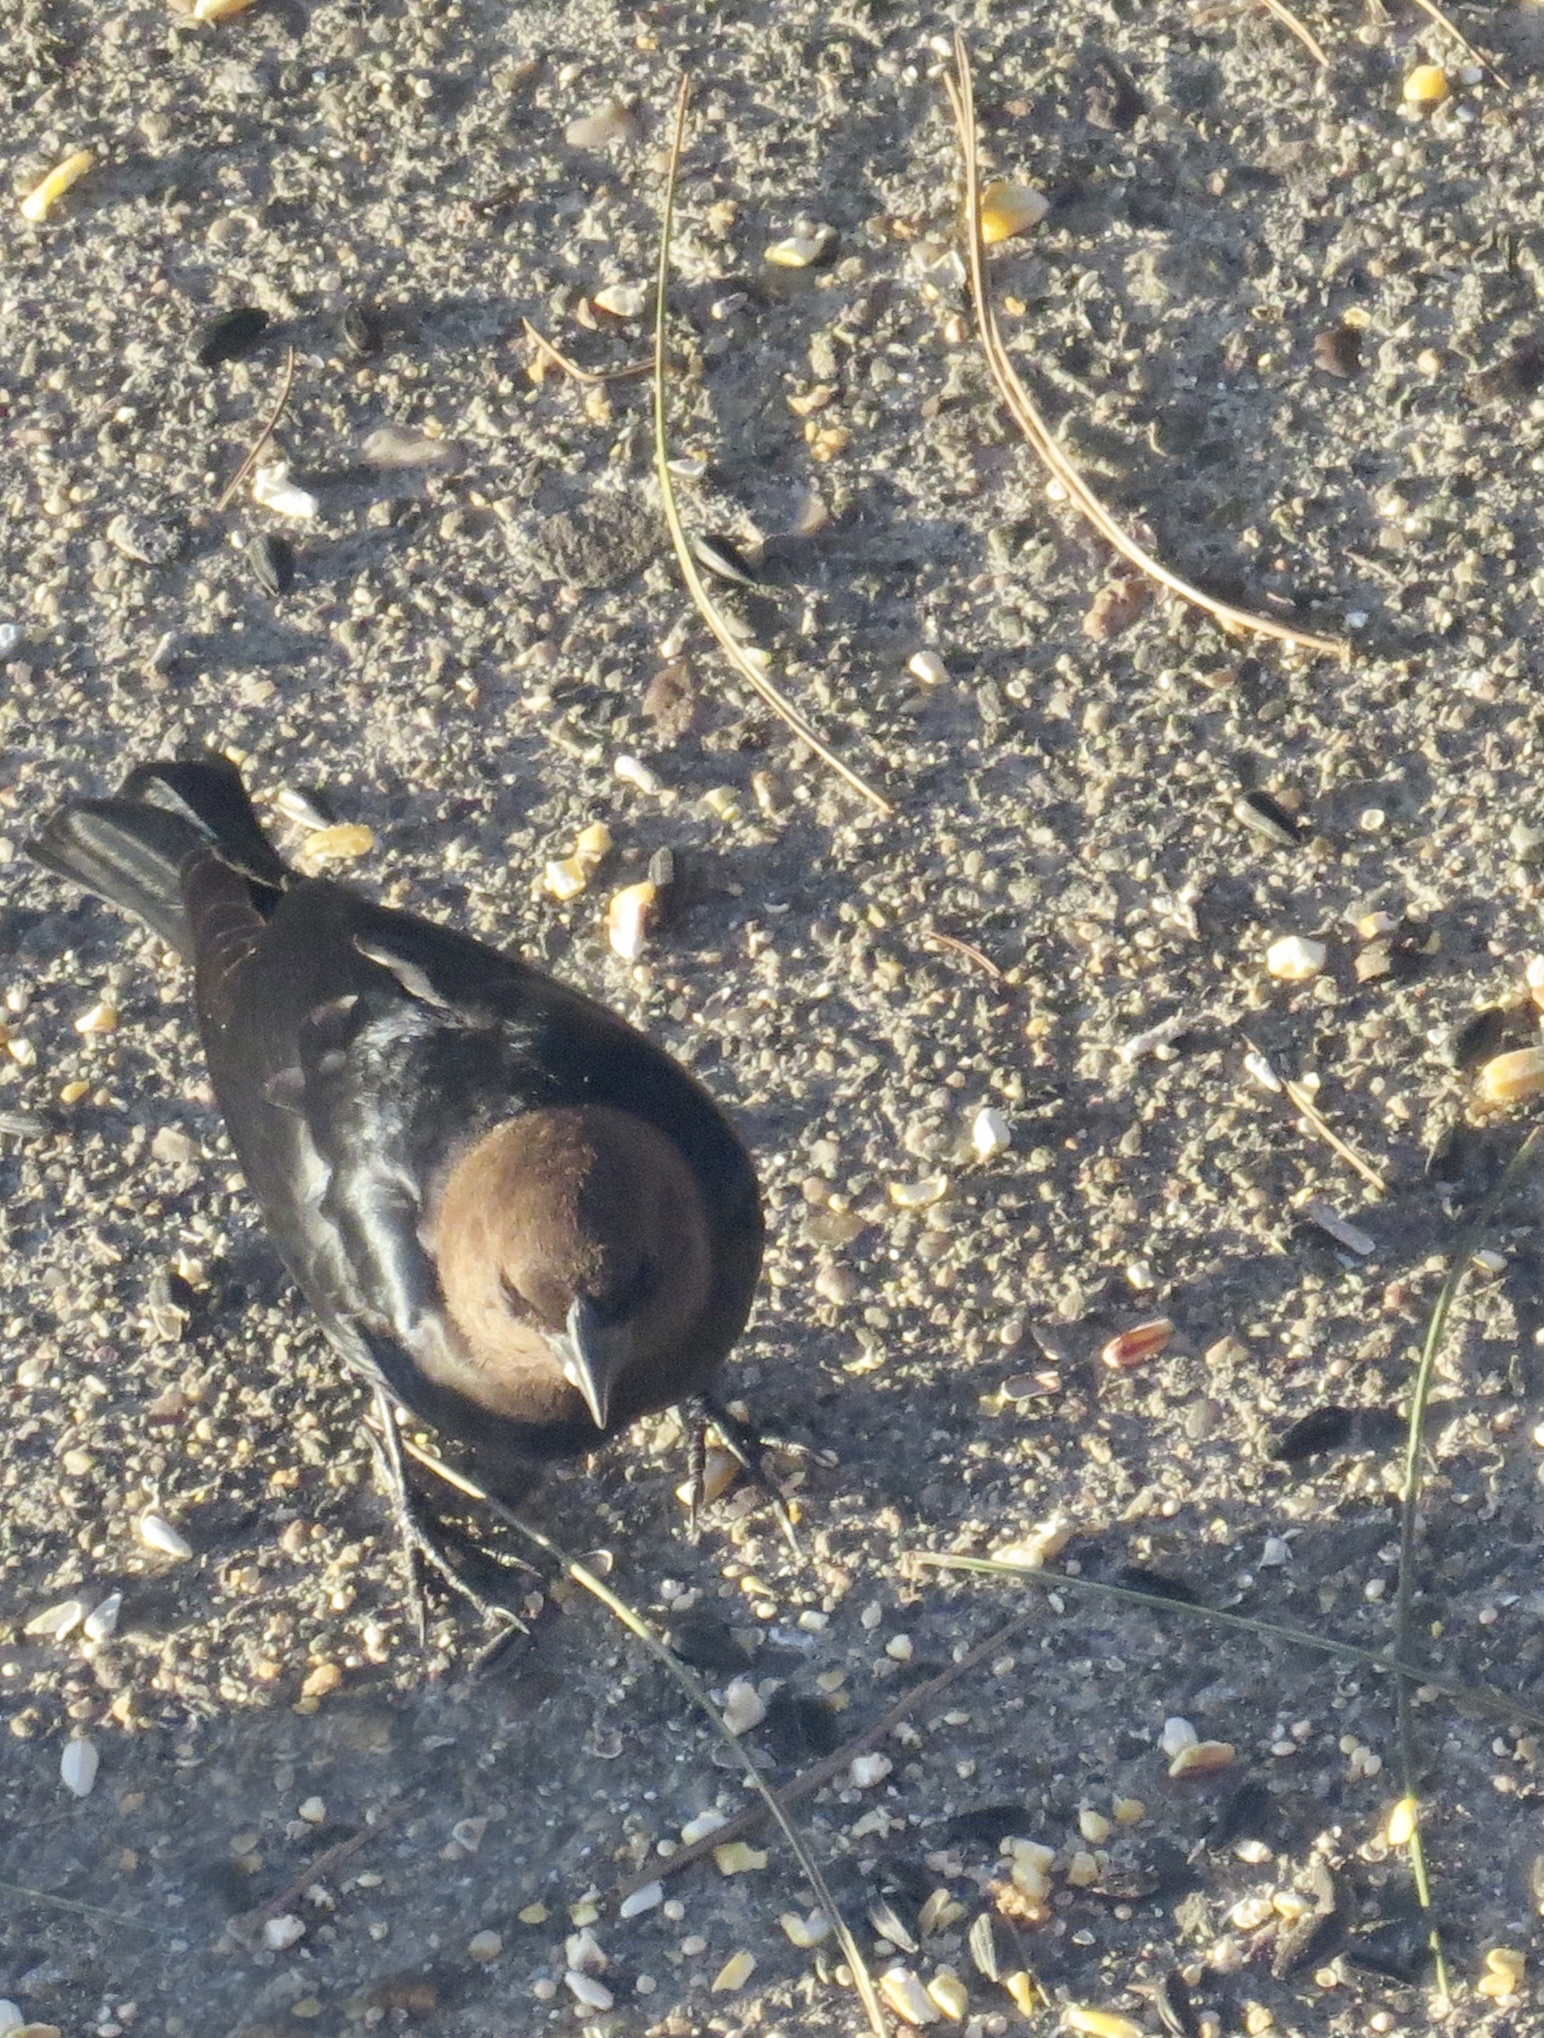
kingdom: Animalia
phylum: Chordata
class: Aves
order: Passeriformes
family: Icteridae
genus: Molothrus
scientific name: Molothrus ater
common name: Brown-headed cowbird
